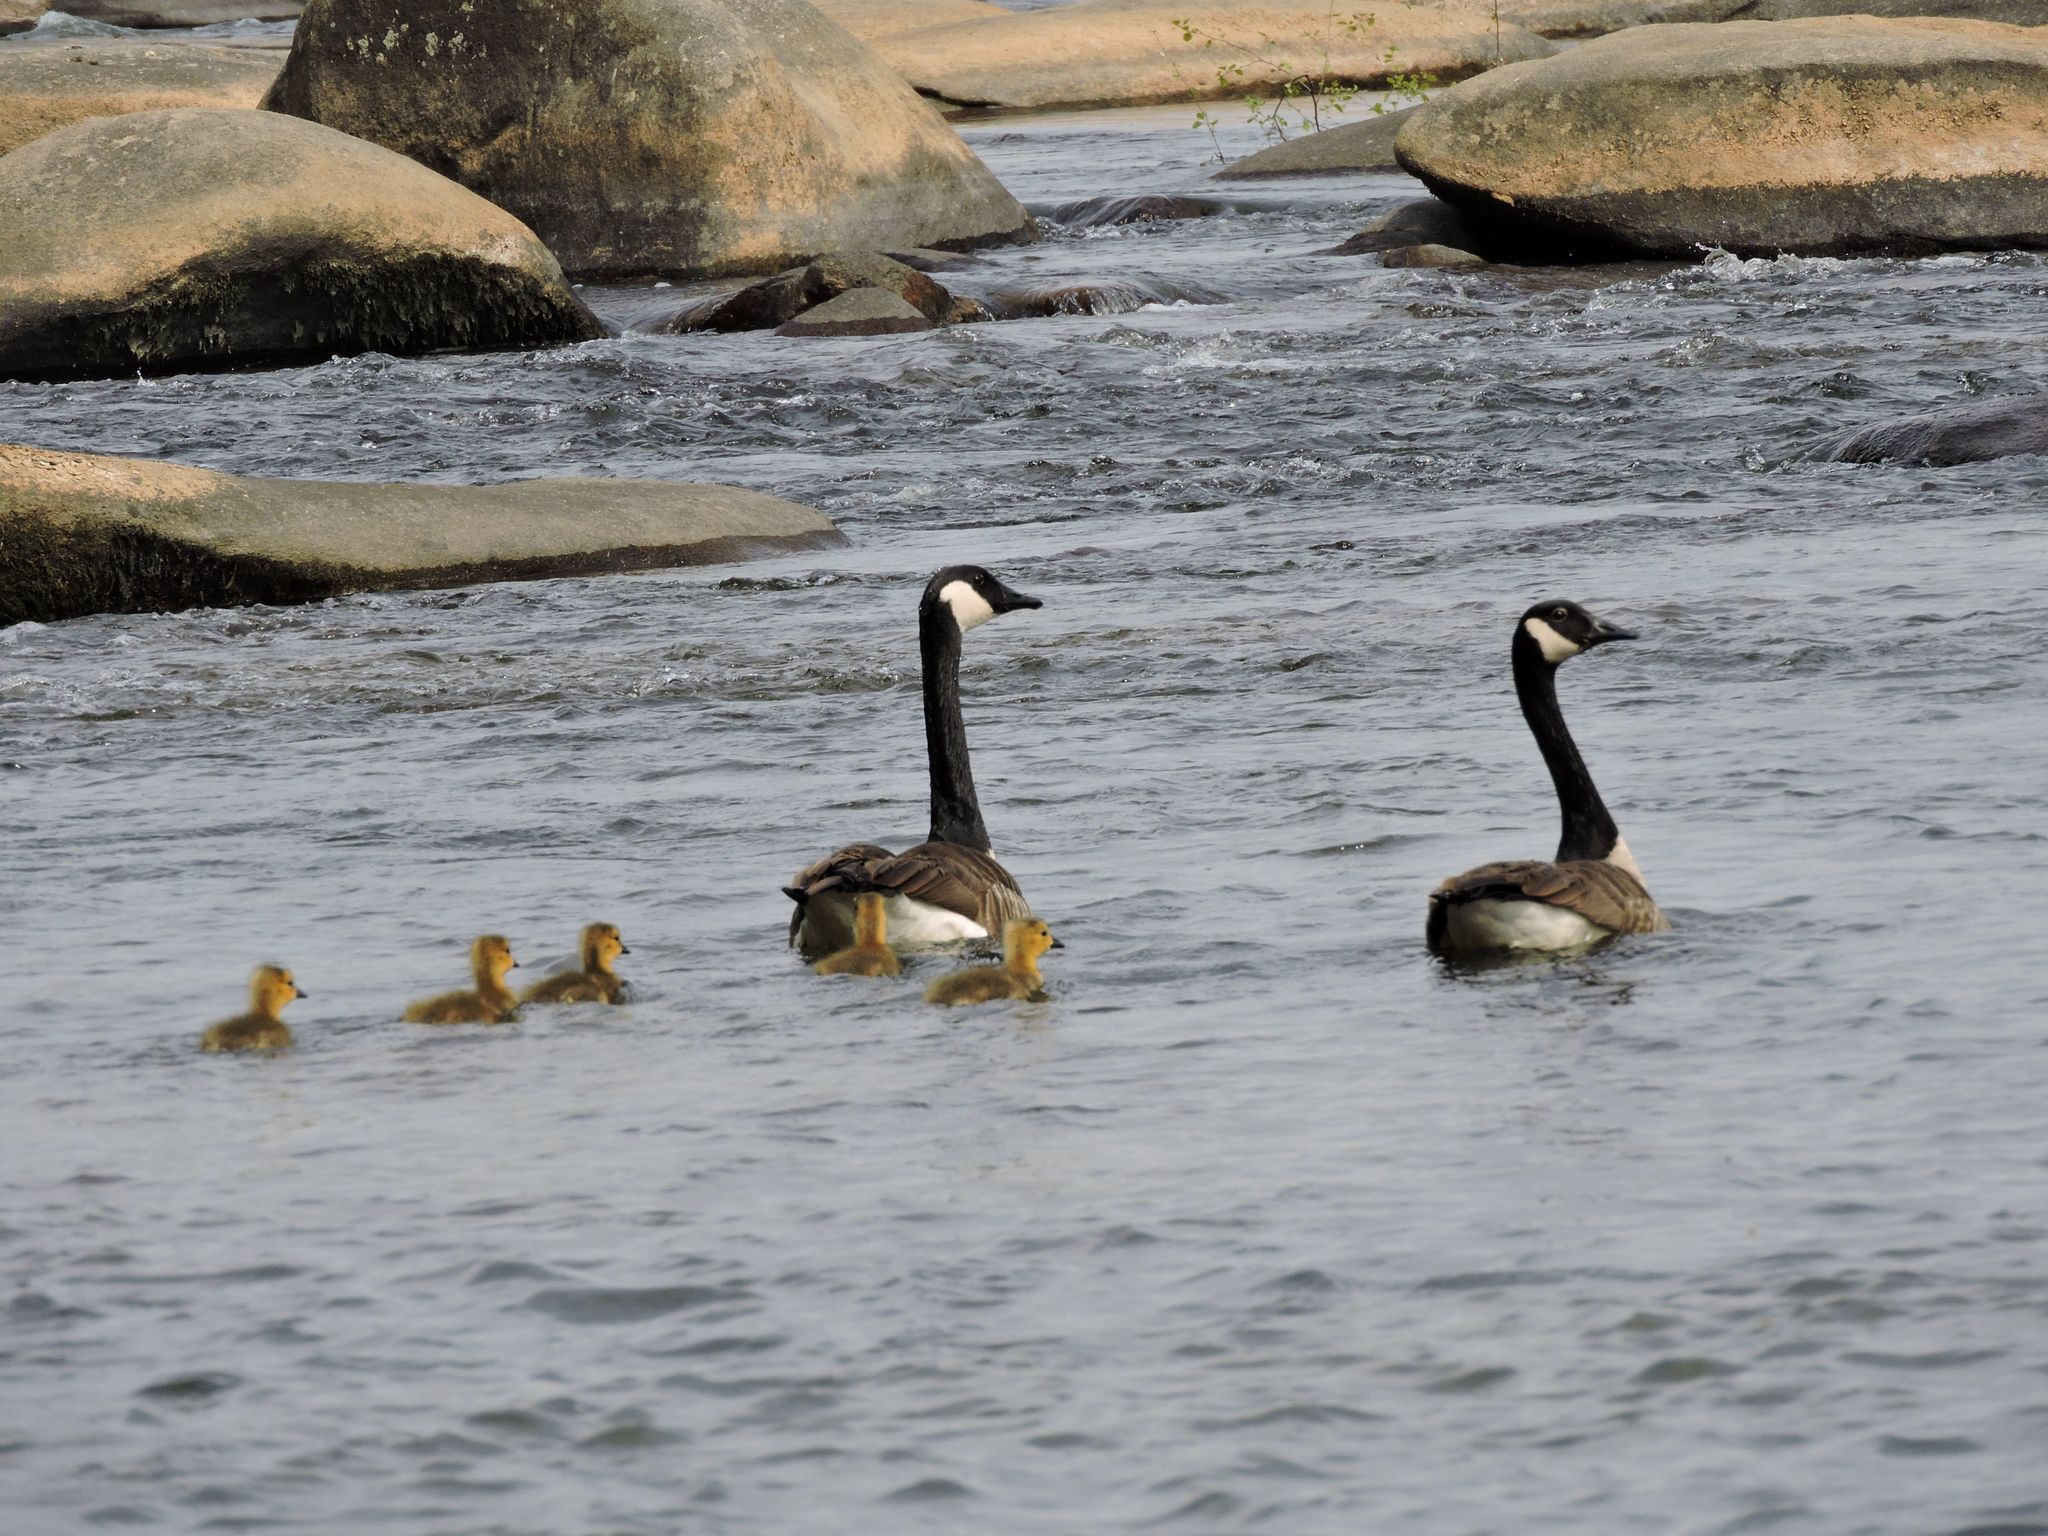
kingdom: Animalia
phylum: Chordata
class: Aves
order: Anseriformes
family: Anatidae
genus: Branta
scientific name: Branta canadensis
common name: Canada goose
